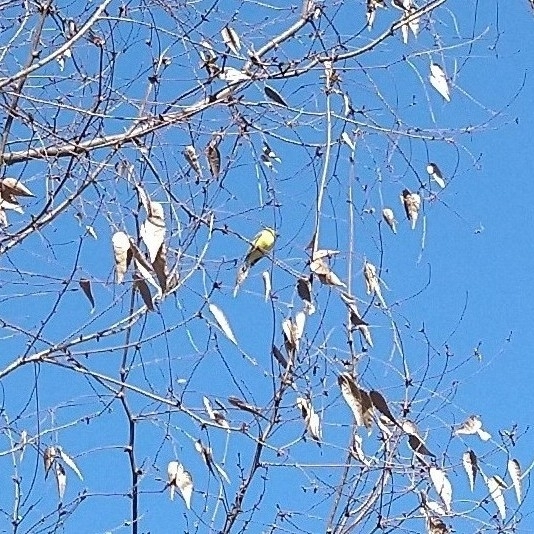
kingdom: Animalia
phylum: Chordata
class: Aves
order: Passeriformes
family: Fringillidae
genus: Spinus
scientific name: Spinus psaltria
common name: Lesser goldfinch
